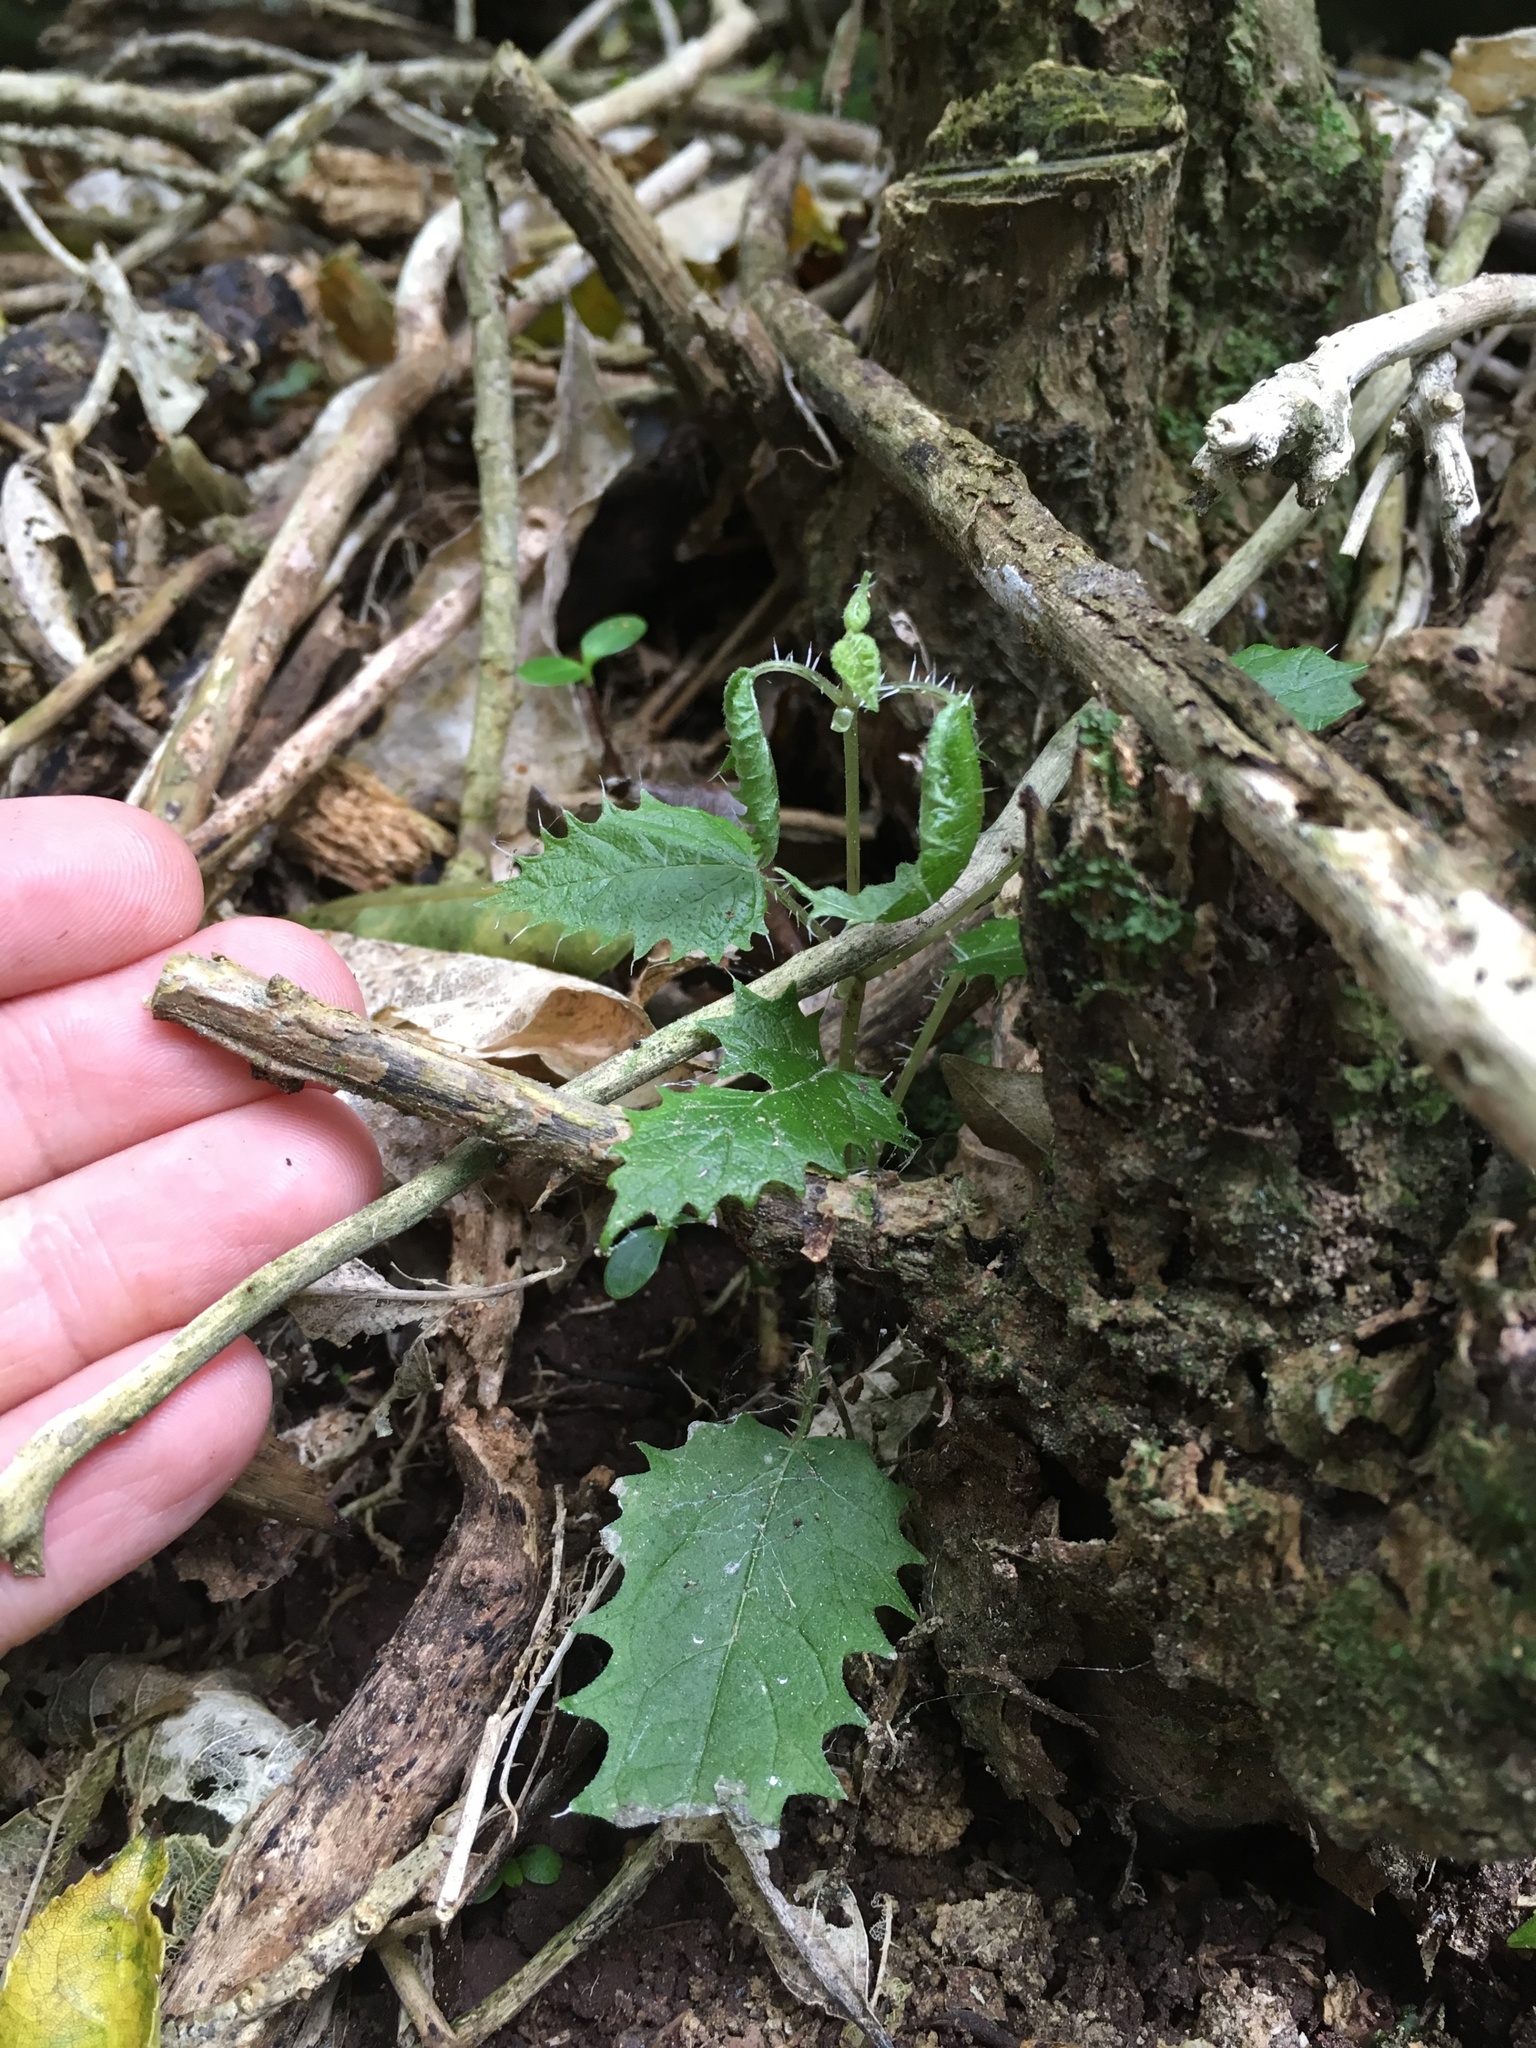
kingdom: Plantae
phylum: Tracheophyta
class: Magnoliopsida
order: Rosales
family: Urticaceae
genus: Urtica
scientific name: Urtica ferox
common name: Tree nettle
